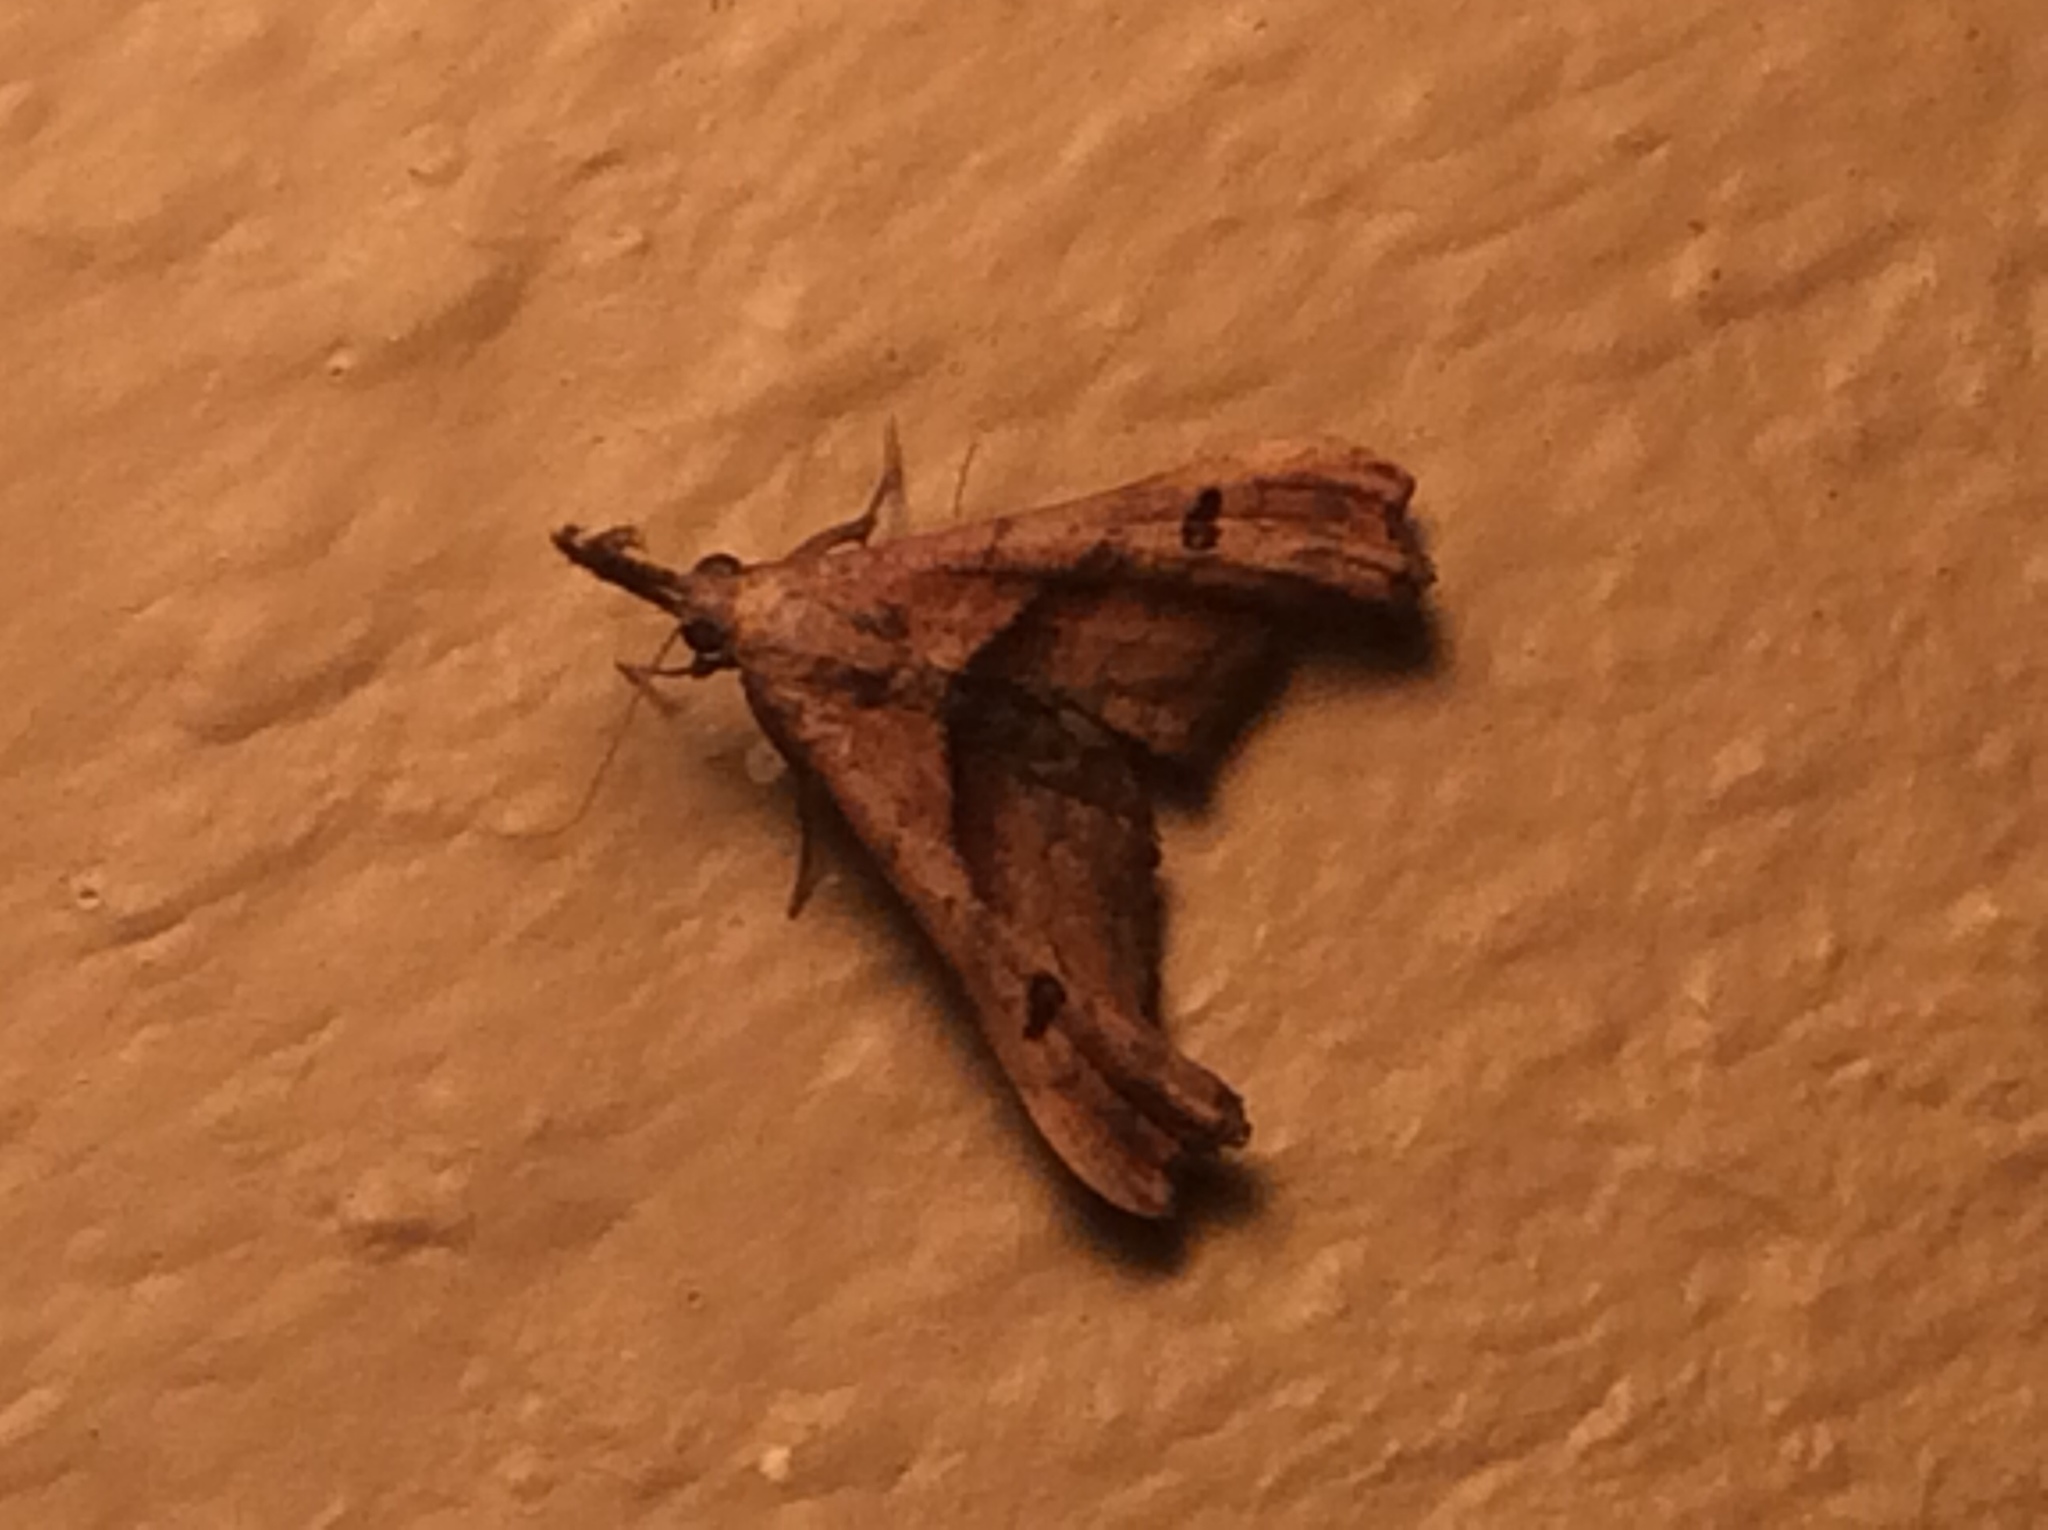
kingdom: Animalia
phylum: Arthropoda
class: Insecta
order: Lepidoptera
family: Erebidae
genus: Palthis
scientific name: Palthis angulalis
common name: Dark-spotted palthis moth
